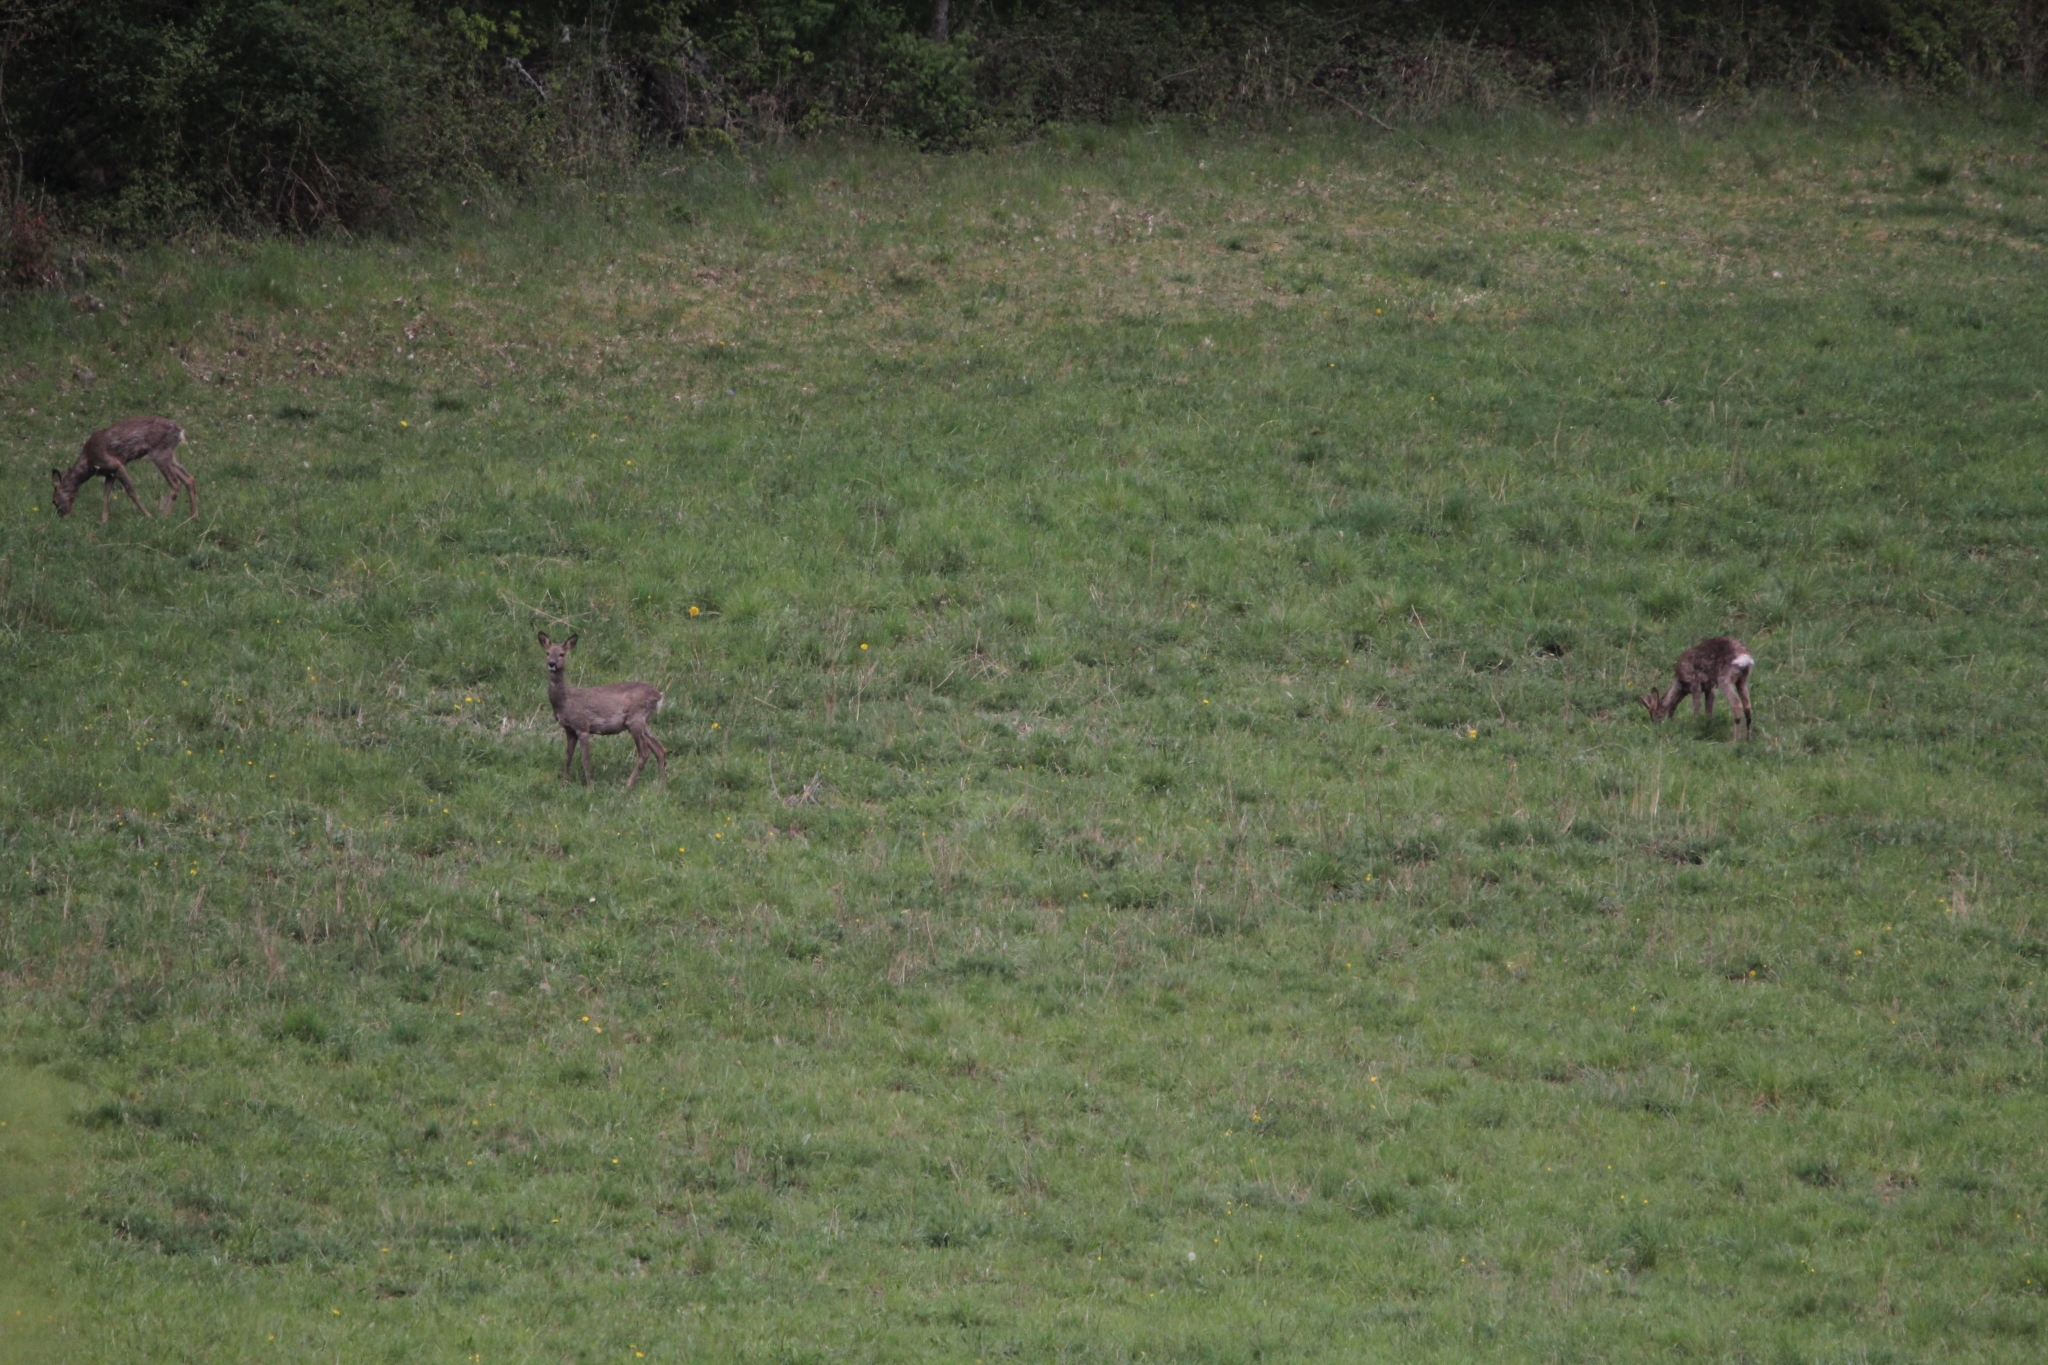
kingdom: Animalia
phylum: Chordata
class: Mammalia
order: Artiodactyla
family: Cervidae
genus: Capreolus
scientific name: Capreolus capreolus
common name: Western roe deer
